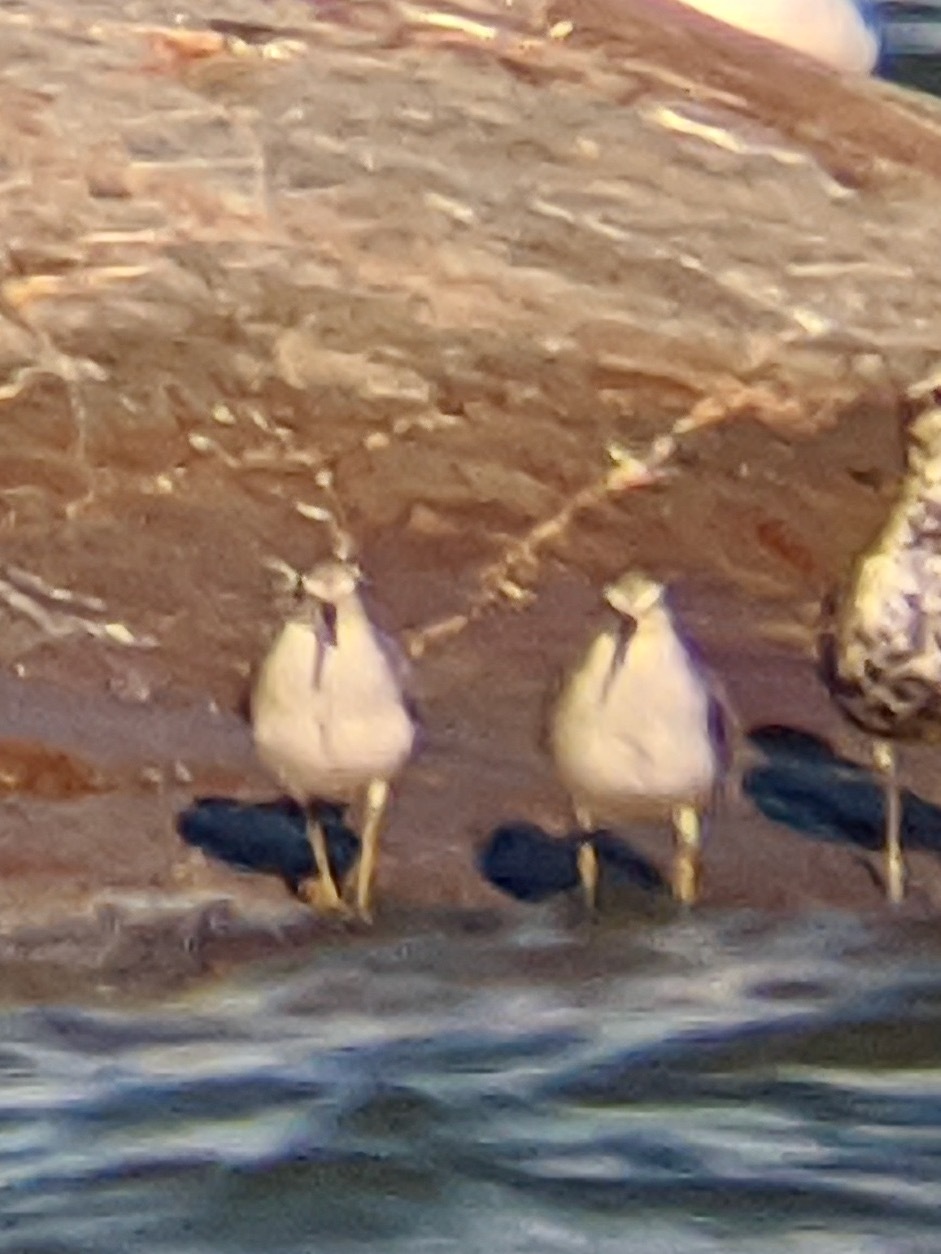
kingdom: Animalia
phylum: Chordata
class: Aves
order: Charadriiformes
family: Scolopacidae
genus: Calidris
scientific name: Calidris canutus
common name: Red knot
